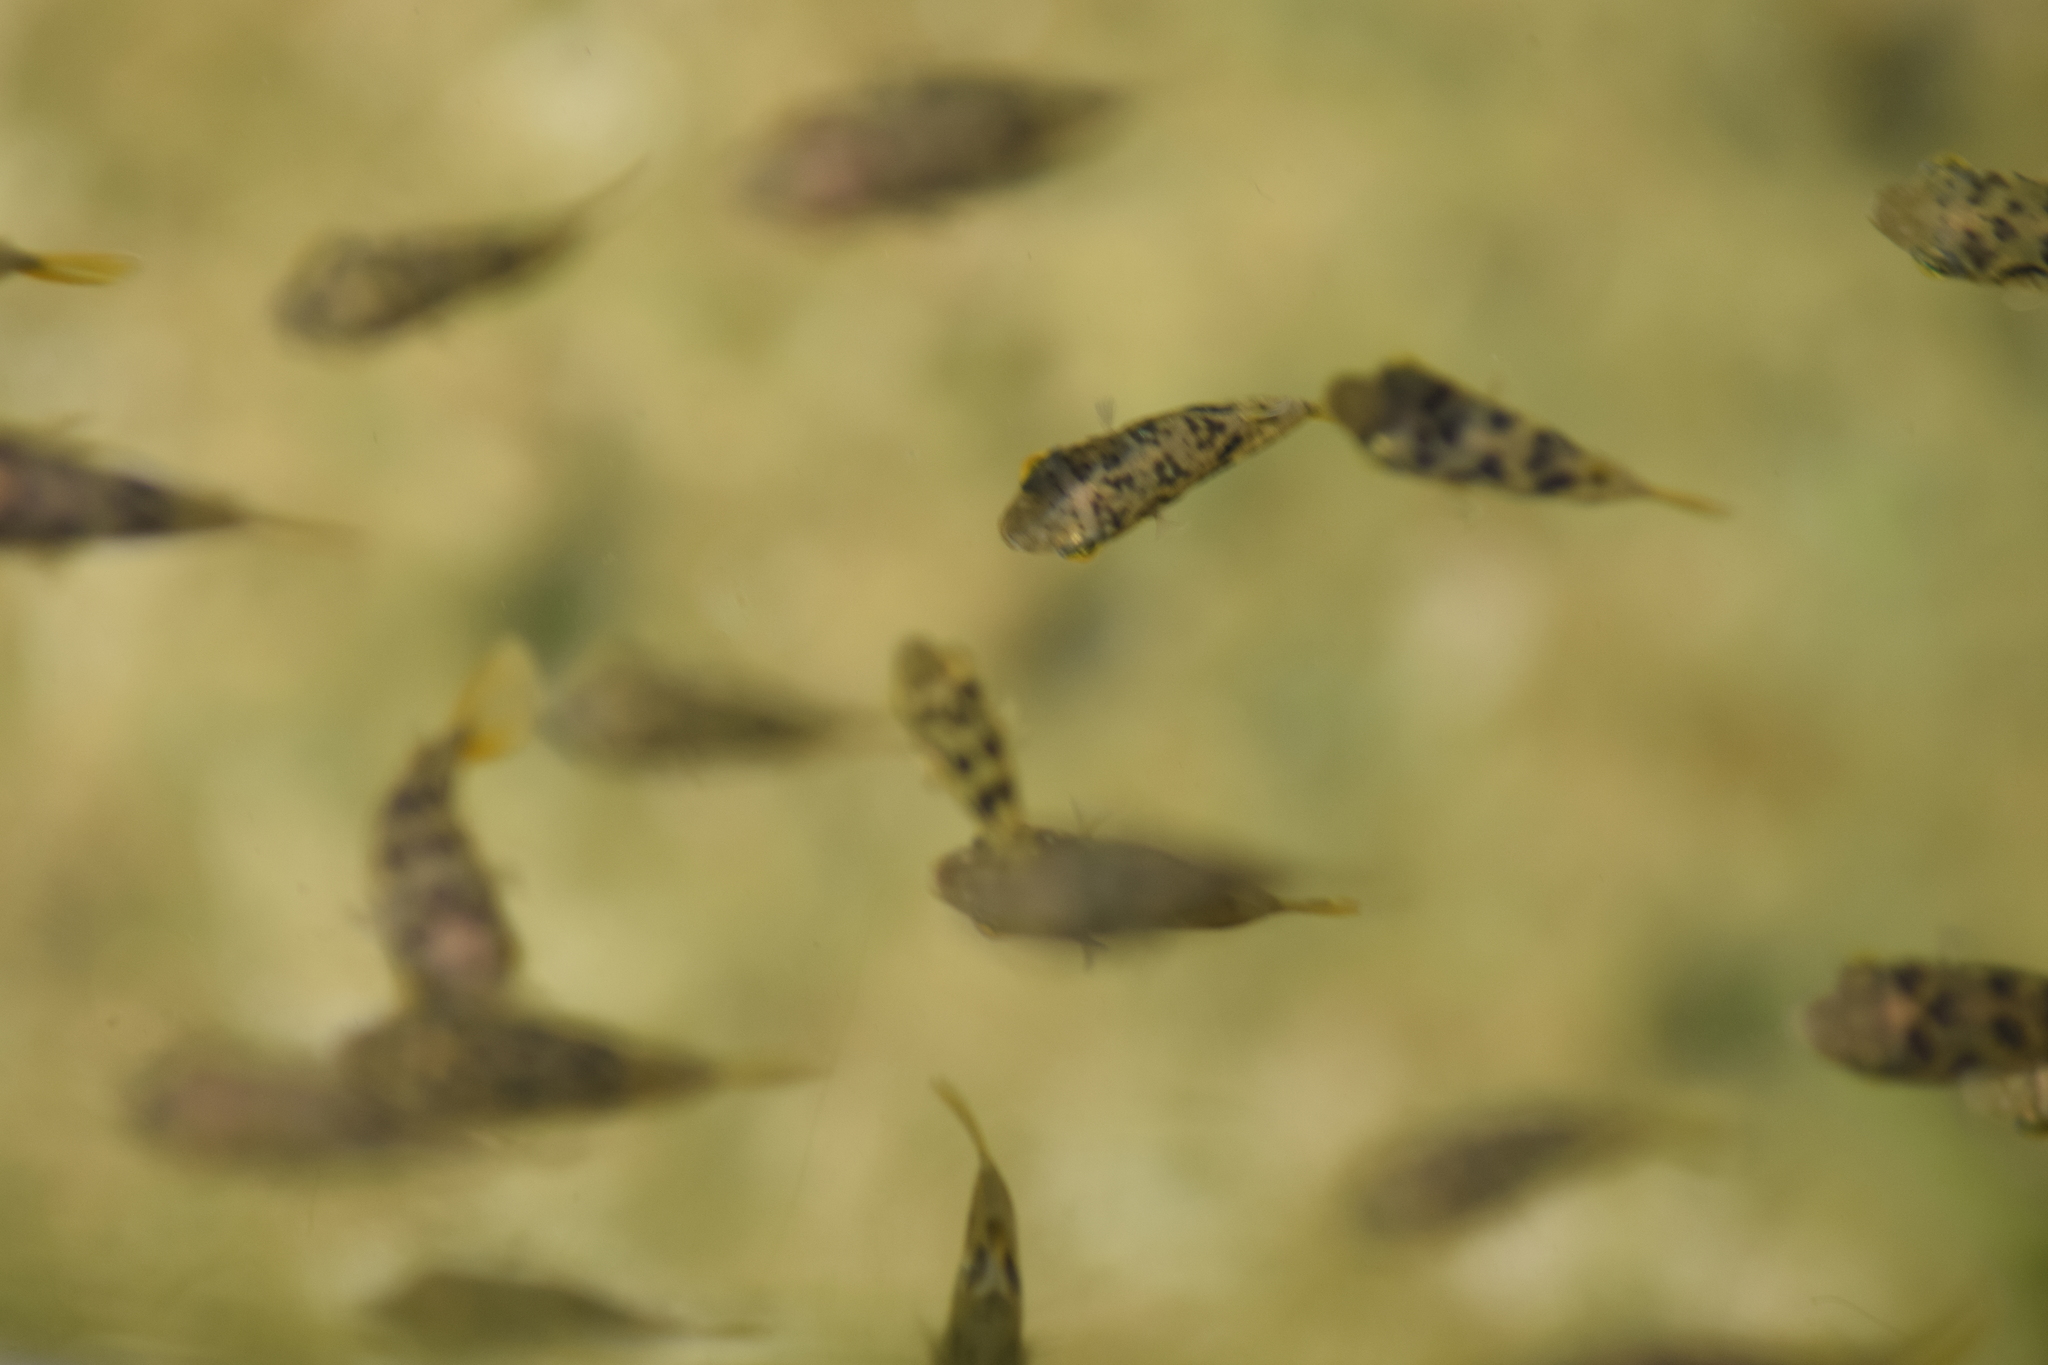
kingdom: Animalia
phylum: Chordata
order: Tetraodontiformes
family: Tetraodontidae
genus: Carinotetraodon
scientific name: Carinotetraodon travancoricus
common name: Dwarf indian puffer
